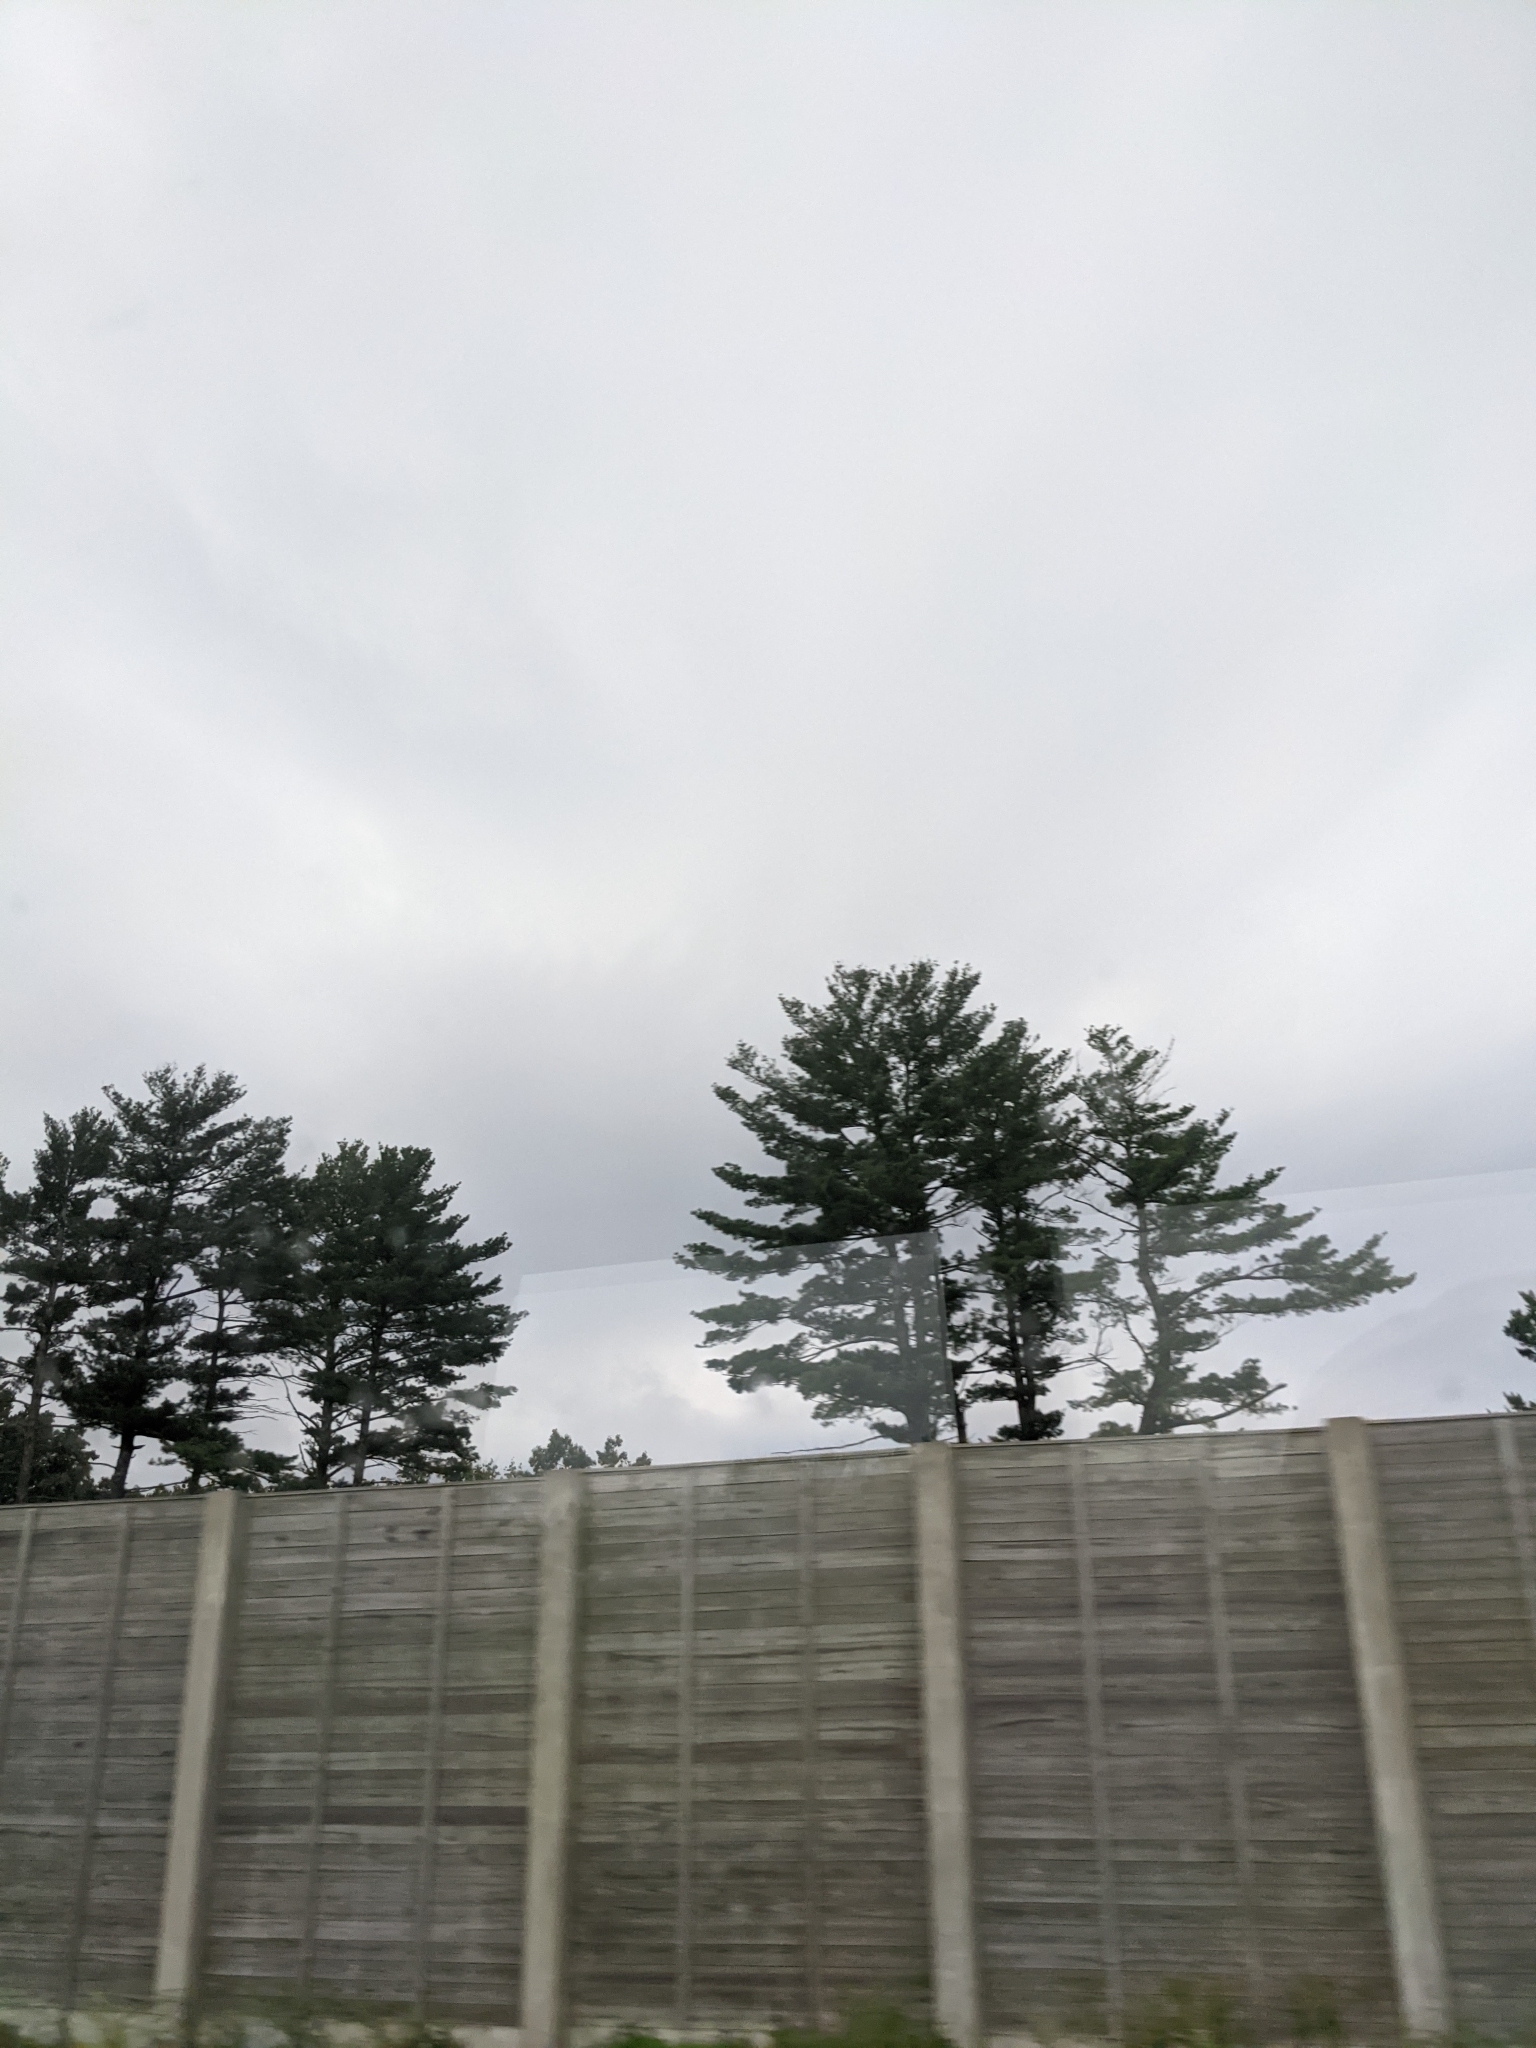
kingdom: Plantae
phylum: Tracheophyta
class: Pinopsida
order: Pinales
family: Pinaceae
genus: Pinus
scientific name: Pinus strobus
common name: Weymouth pine
